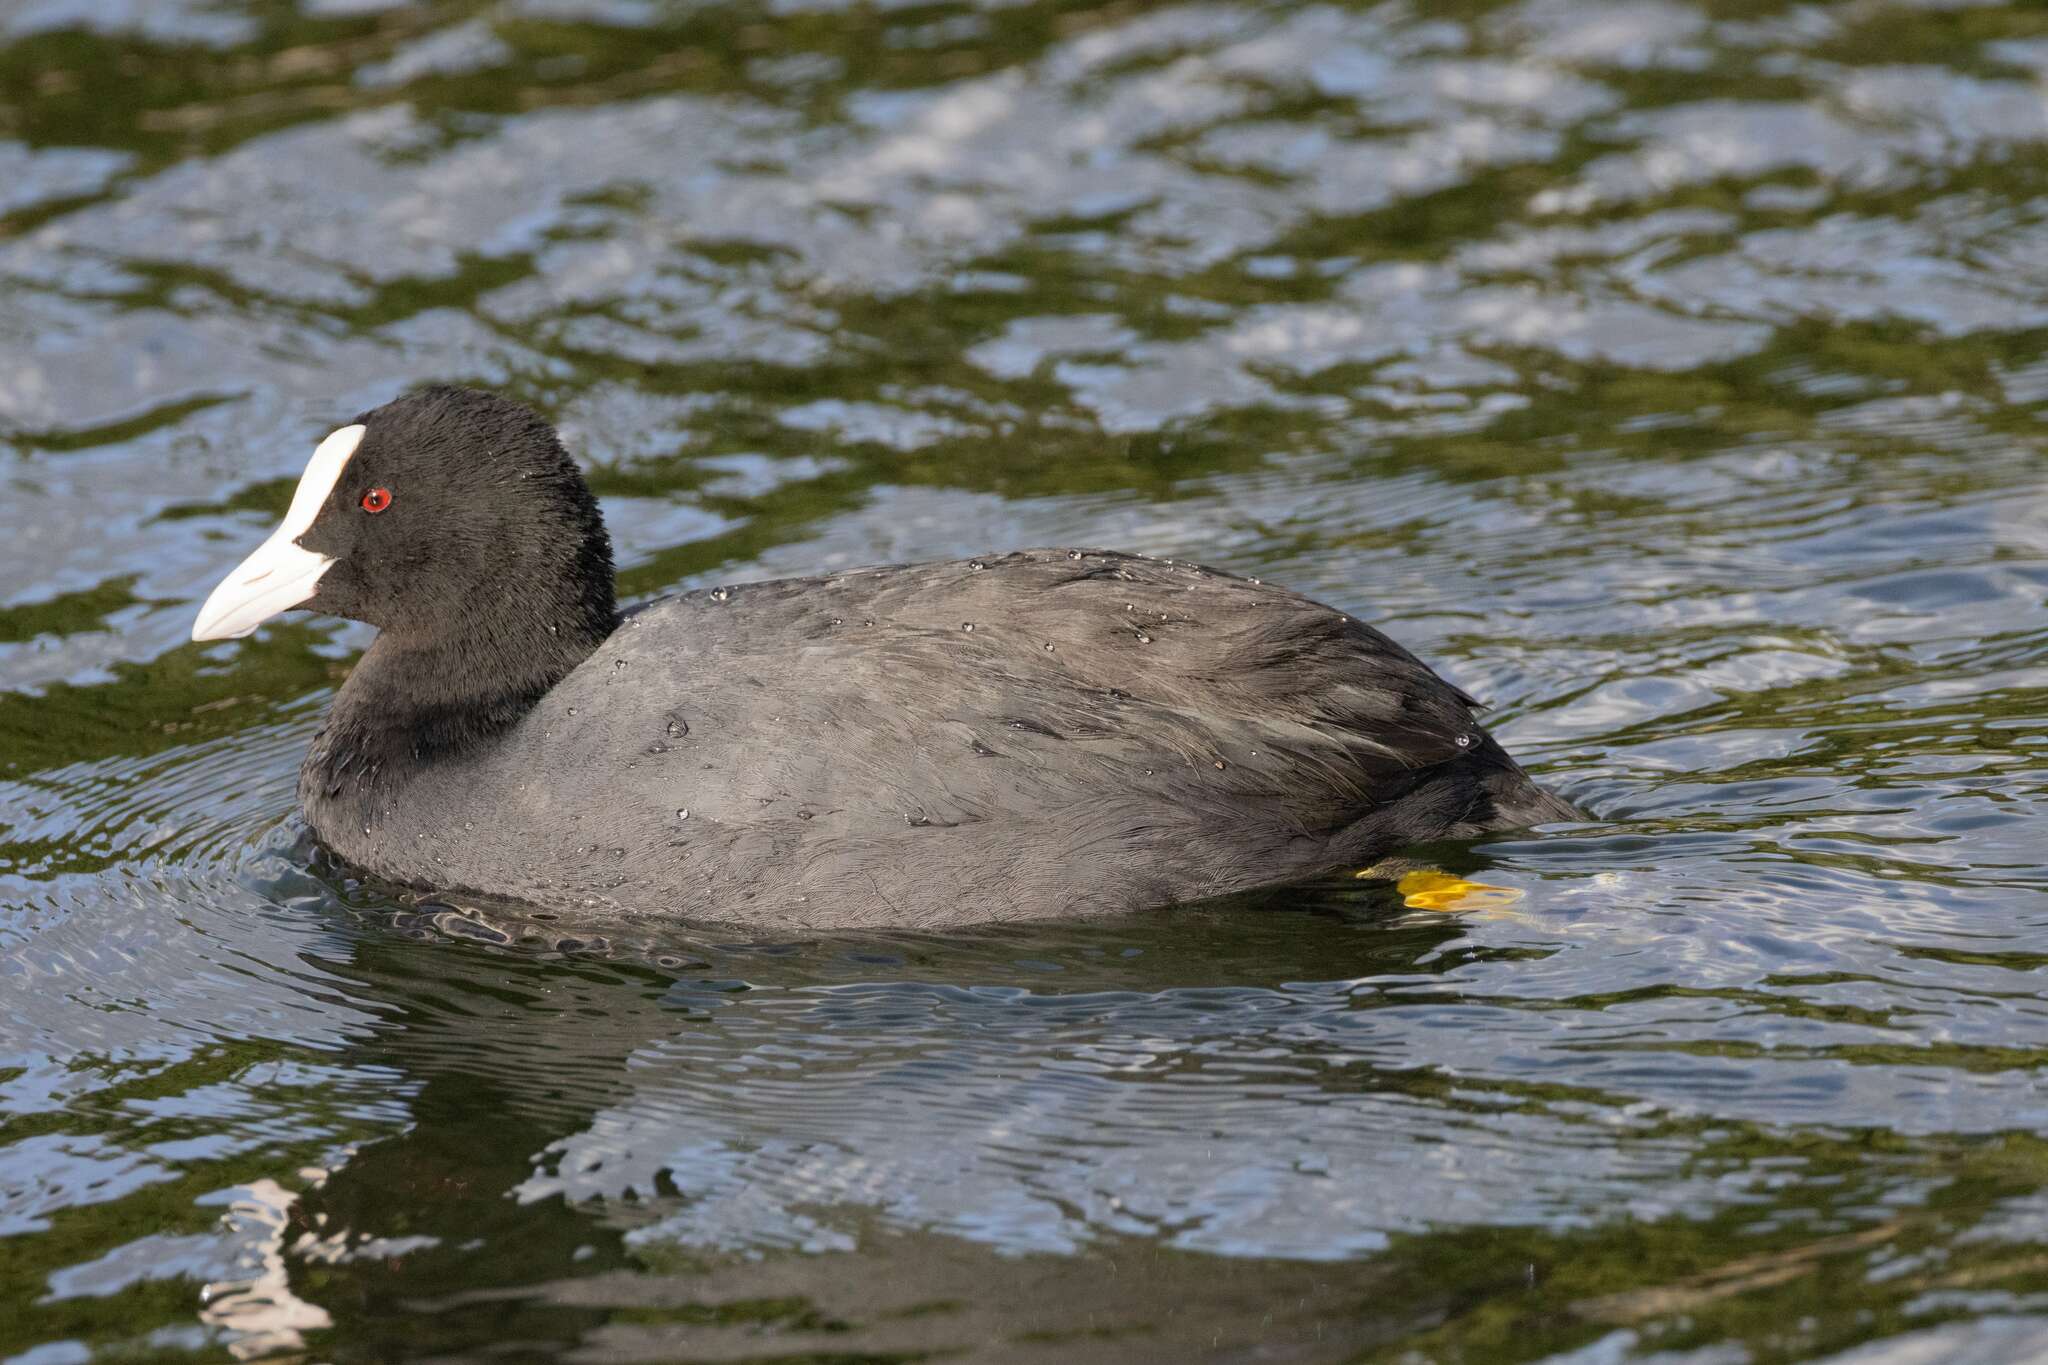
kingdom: Animalia
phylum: Chordata
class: Aves
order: Gruiformes
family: Rallidae
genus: Fulica
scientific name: Fulica atra
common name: Eurasian coot
